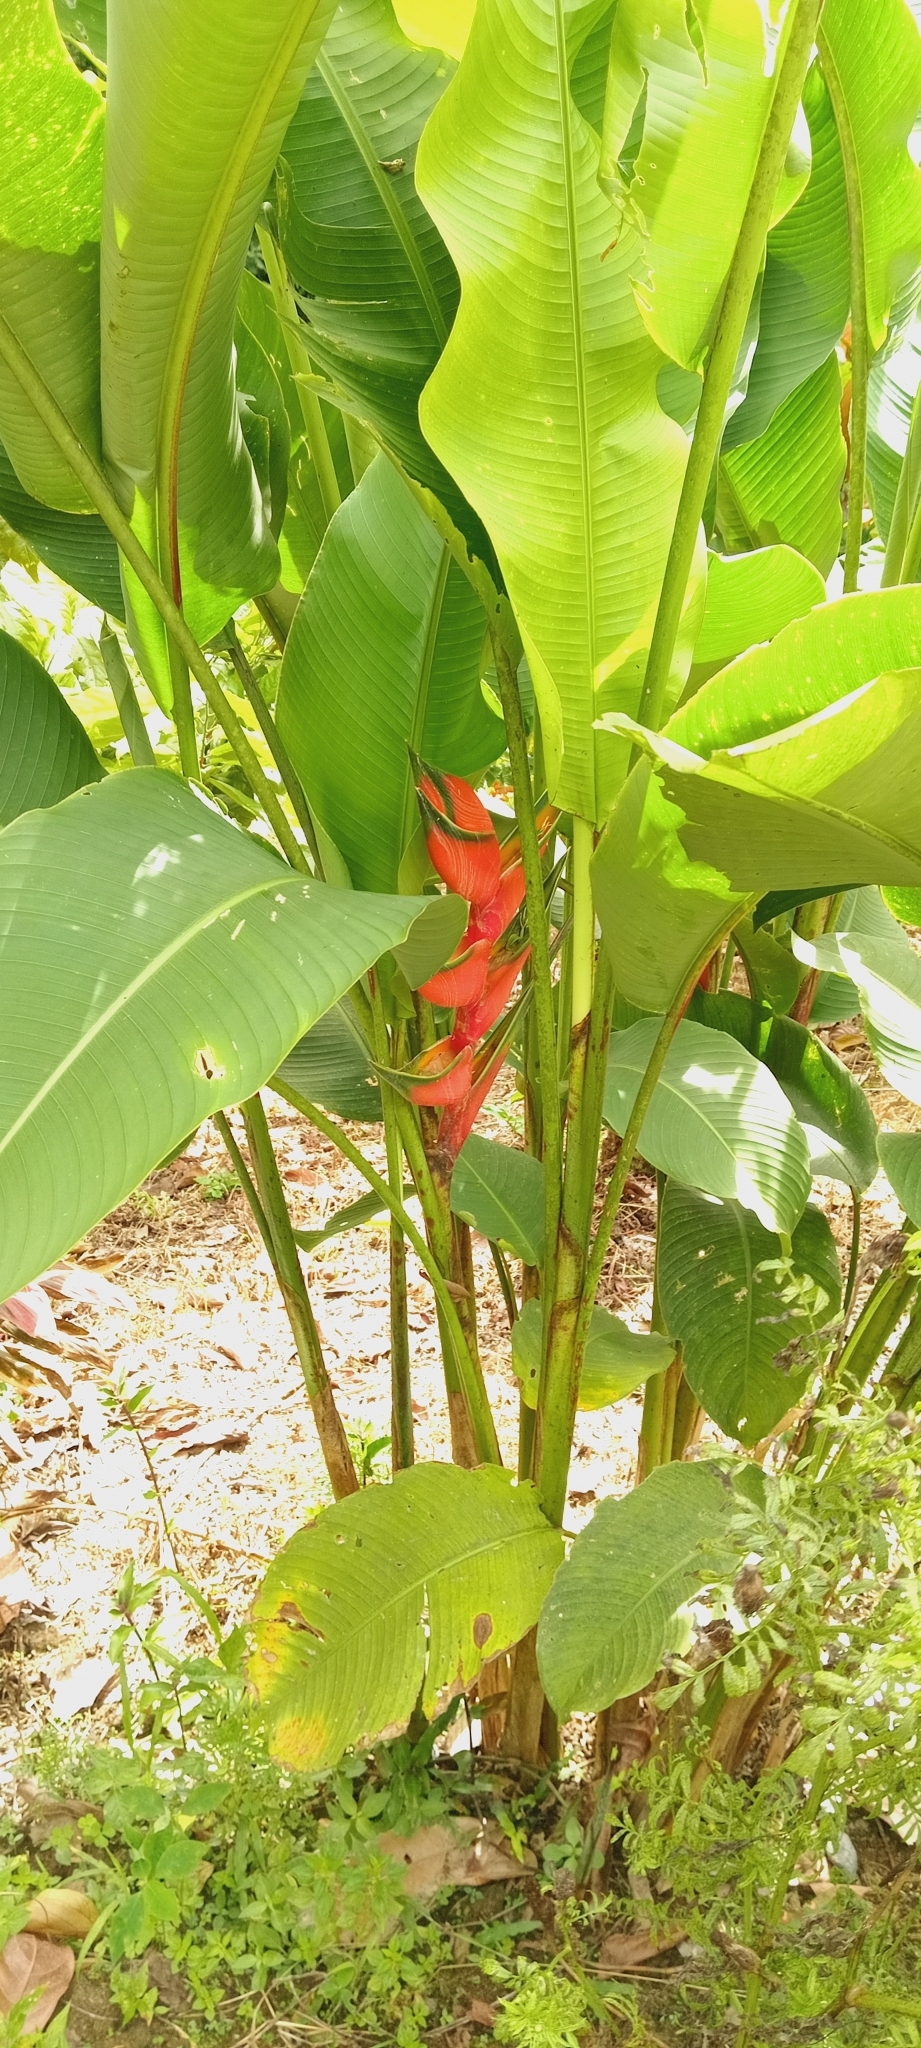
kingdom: Plantae
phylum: Tracheophyta
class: Liliopsida
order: Zingiberales
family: Heliconiaceae
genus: Heliconia
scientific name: Heliconia bihai
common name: Macaw flower
